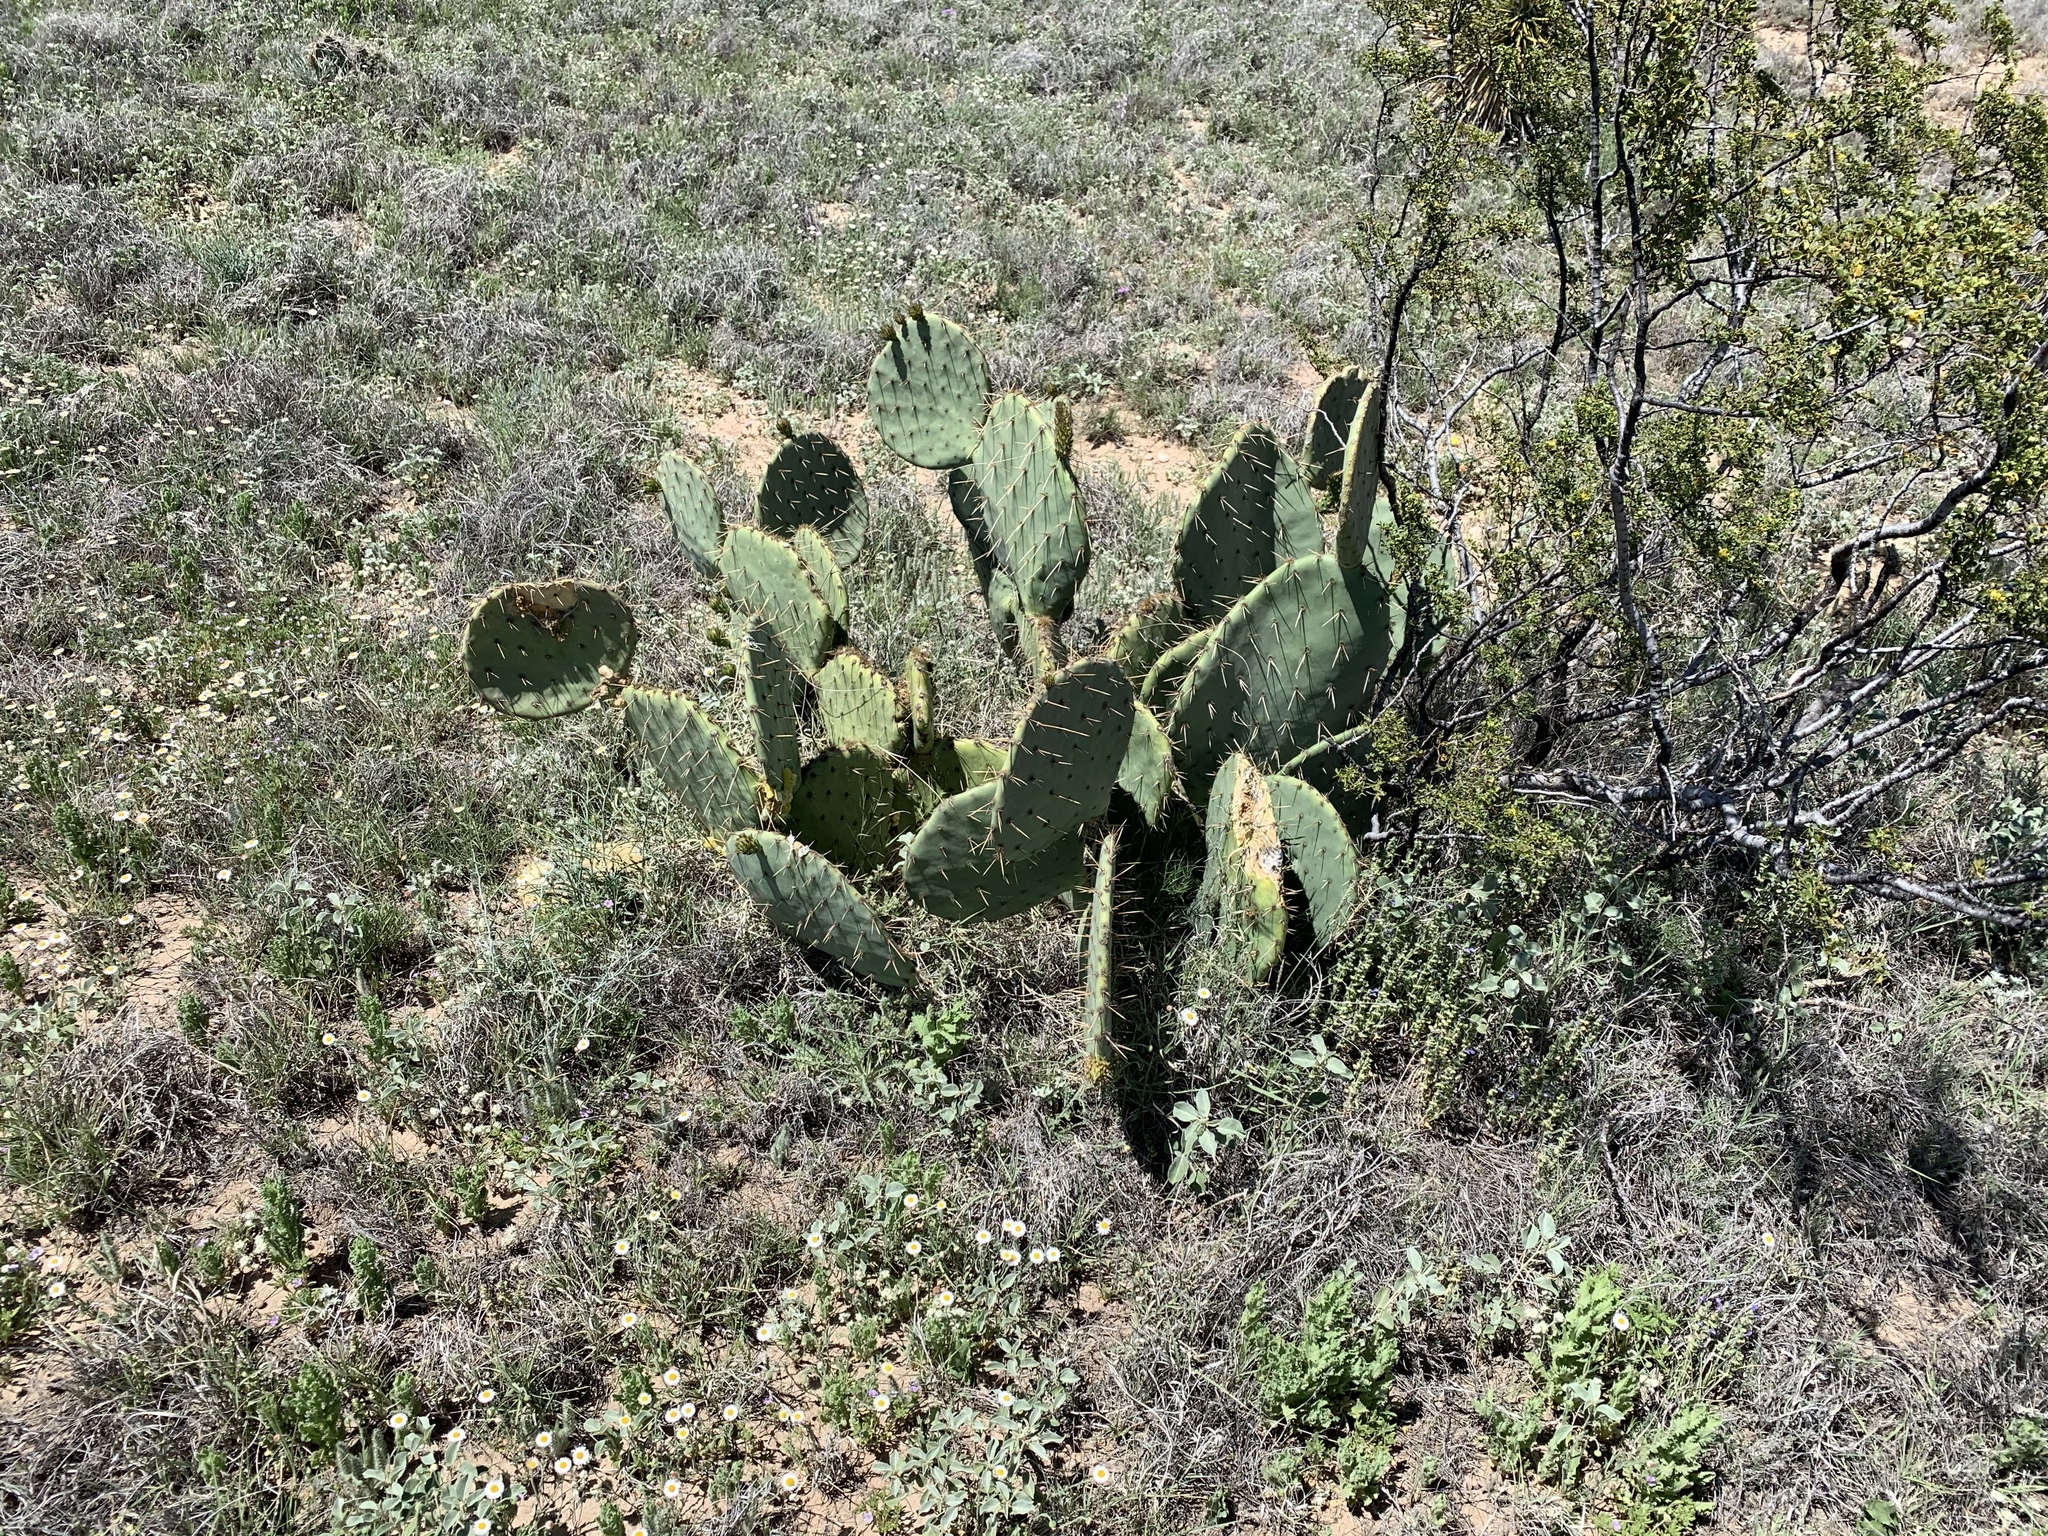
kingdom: Plantae
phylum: Tracheophyta
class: Magnoliopsida
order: Caryophyllales
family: Cactaceae
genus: Opuntia
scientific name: Opuntia engelmannii
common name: Cactus-apple
